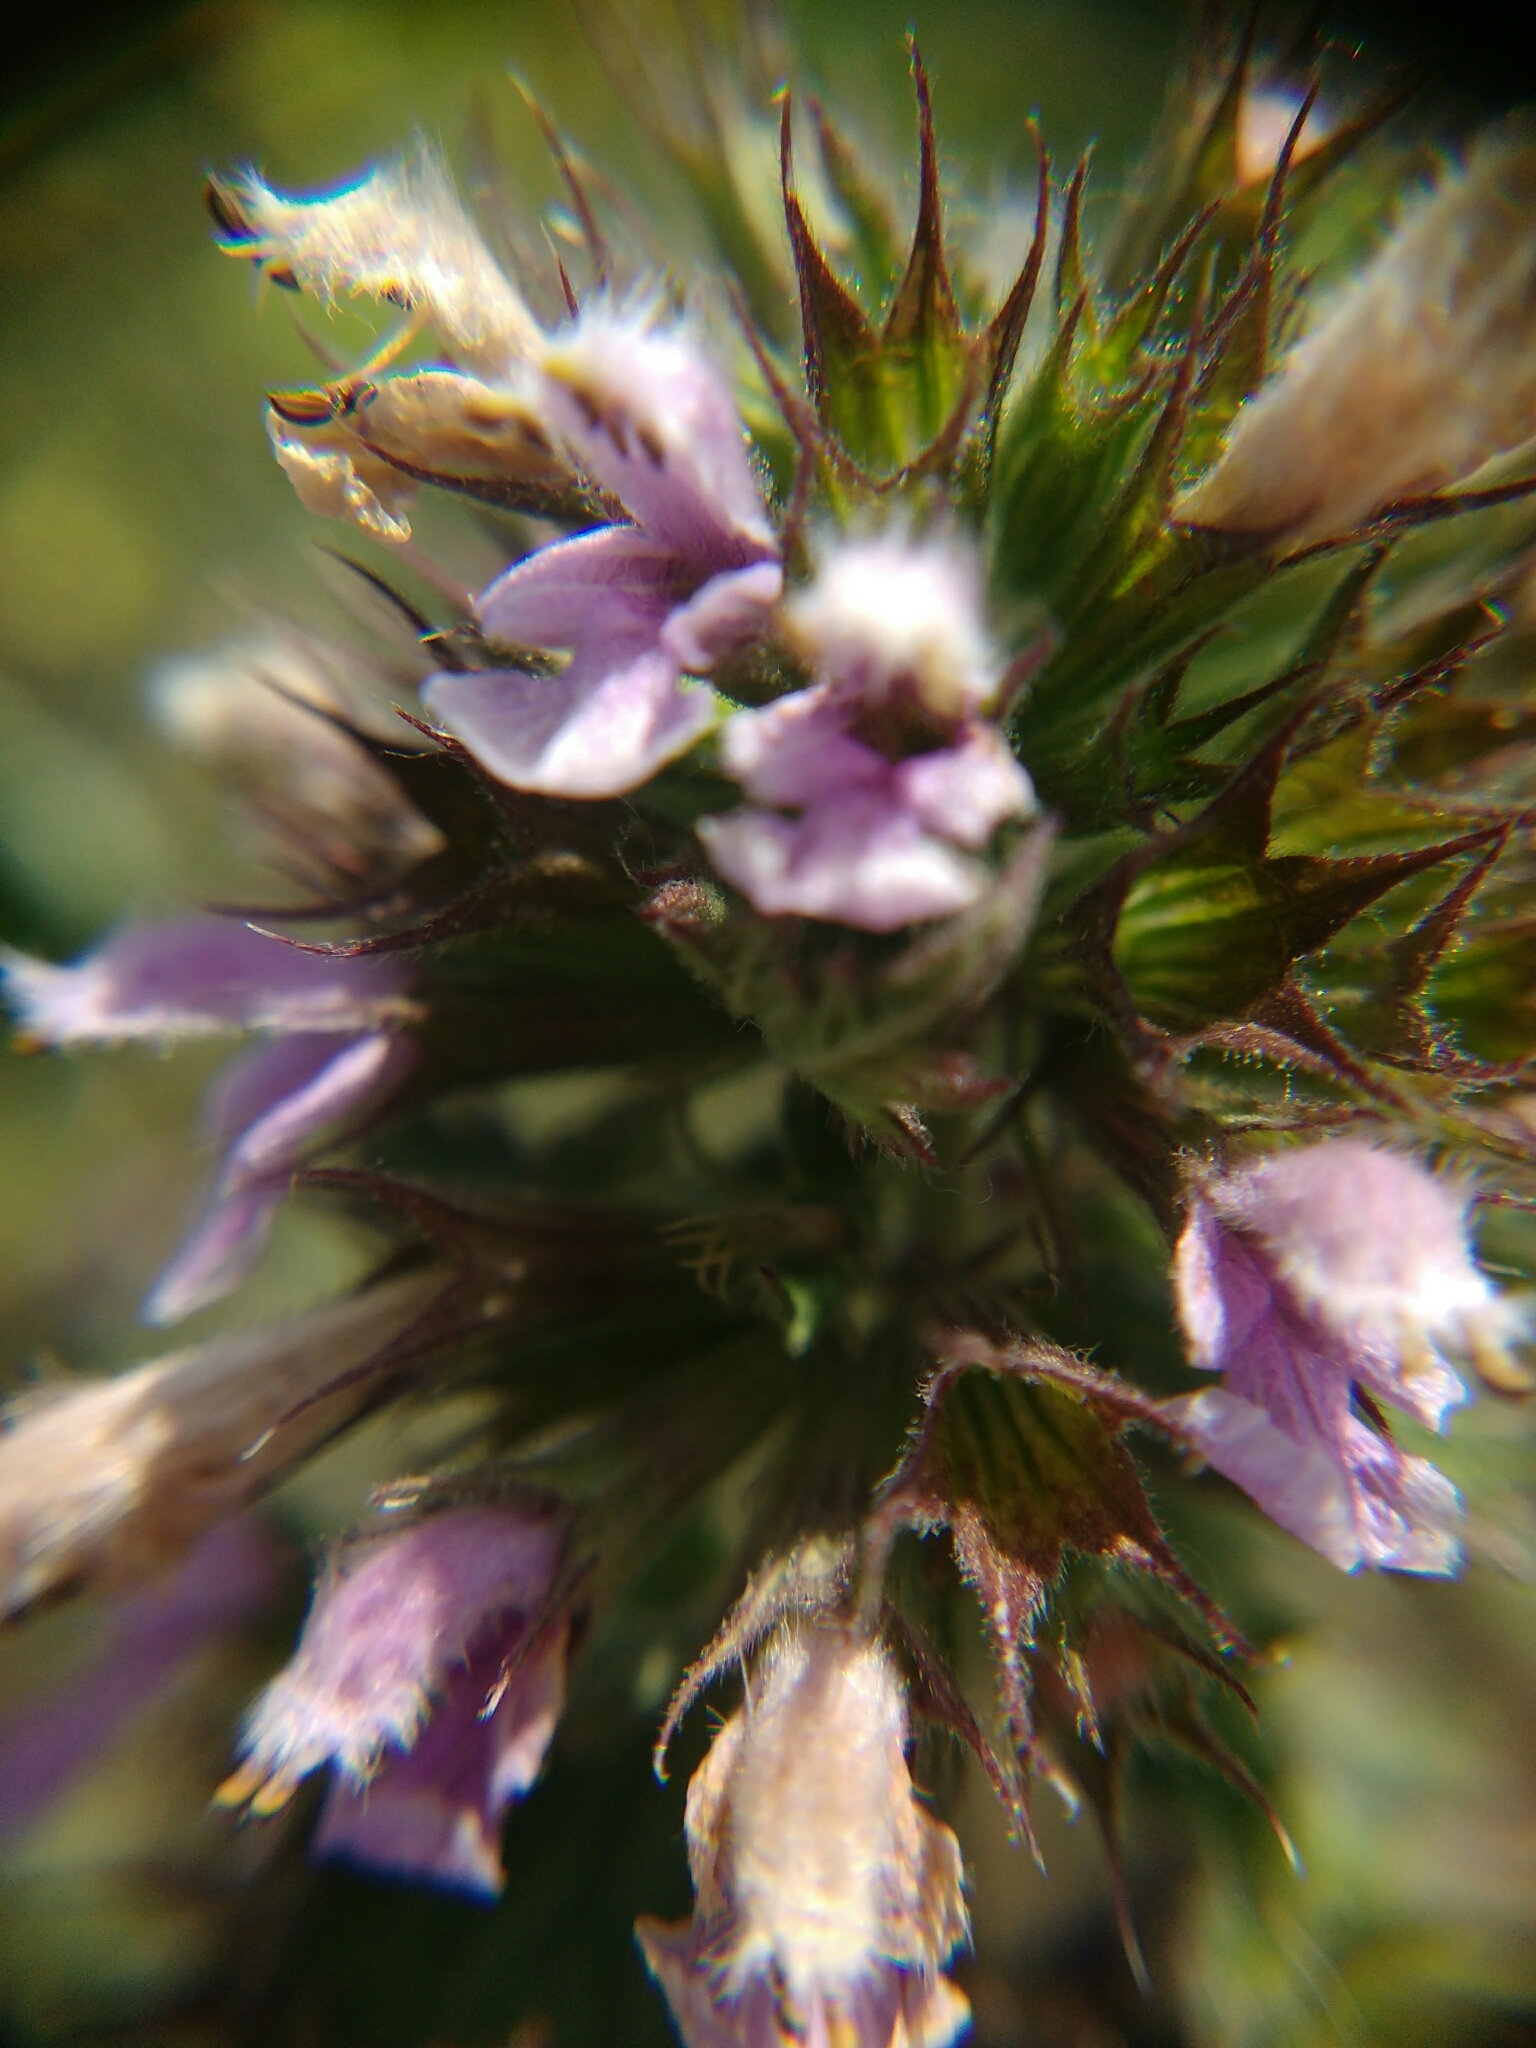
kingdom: Plantae
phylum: Tracheophyta
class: Magnoliopsida
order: Lamiales
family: Lamiaceae
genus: Ballota
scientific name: Ballota nigra
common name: Black horehound
